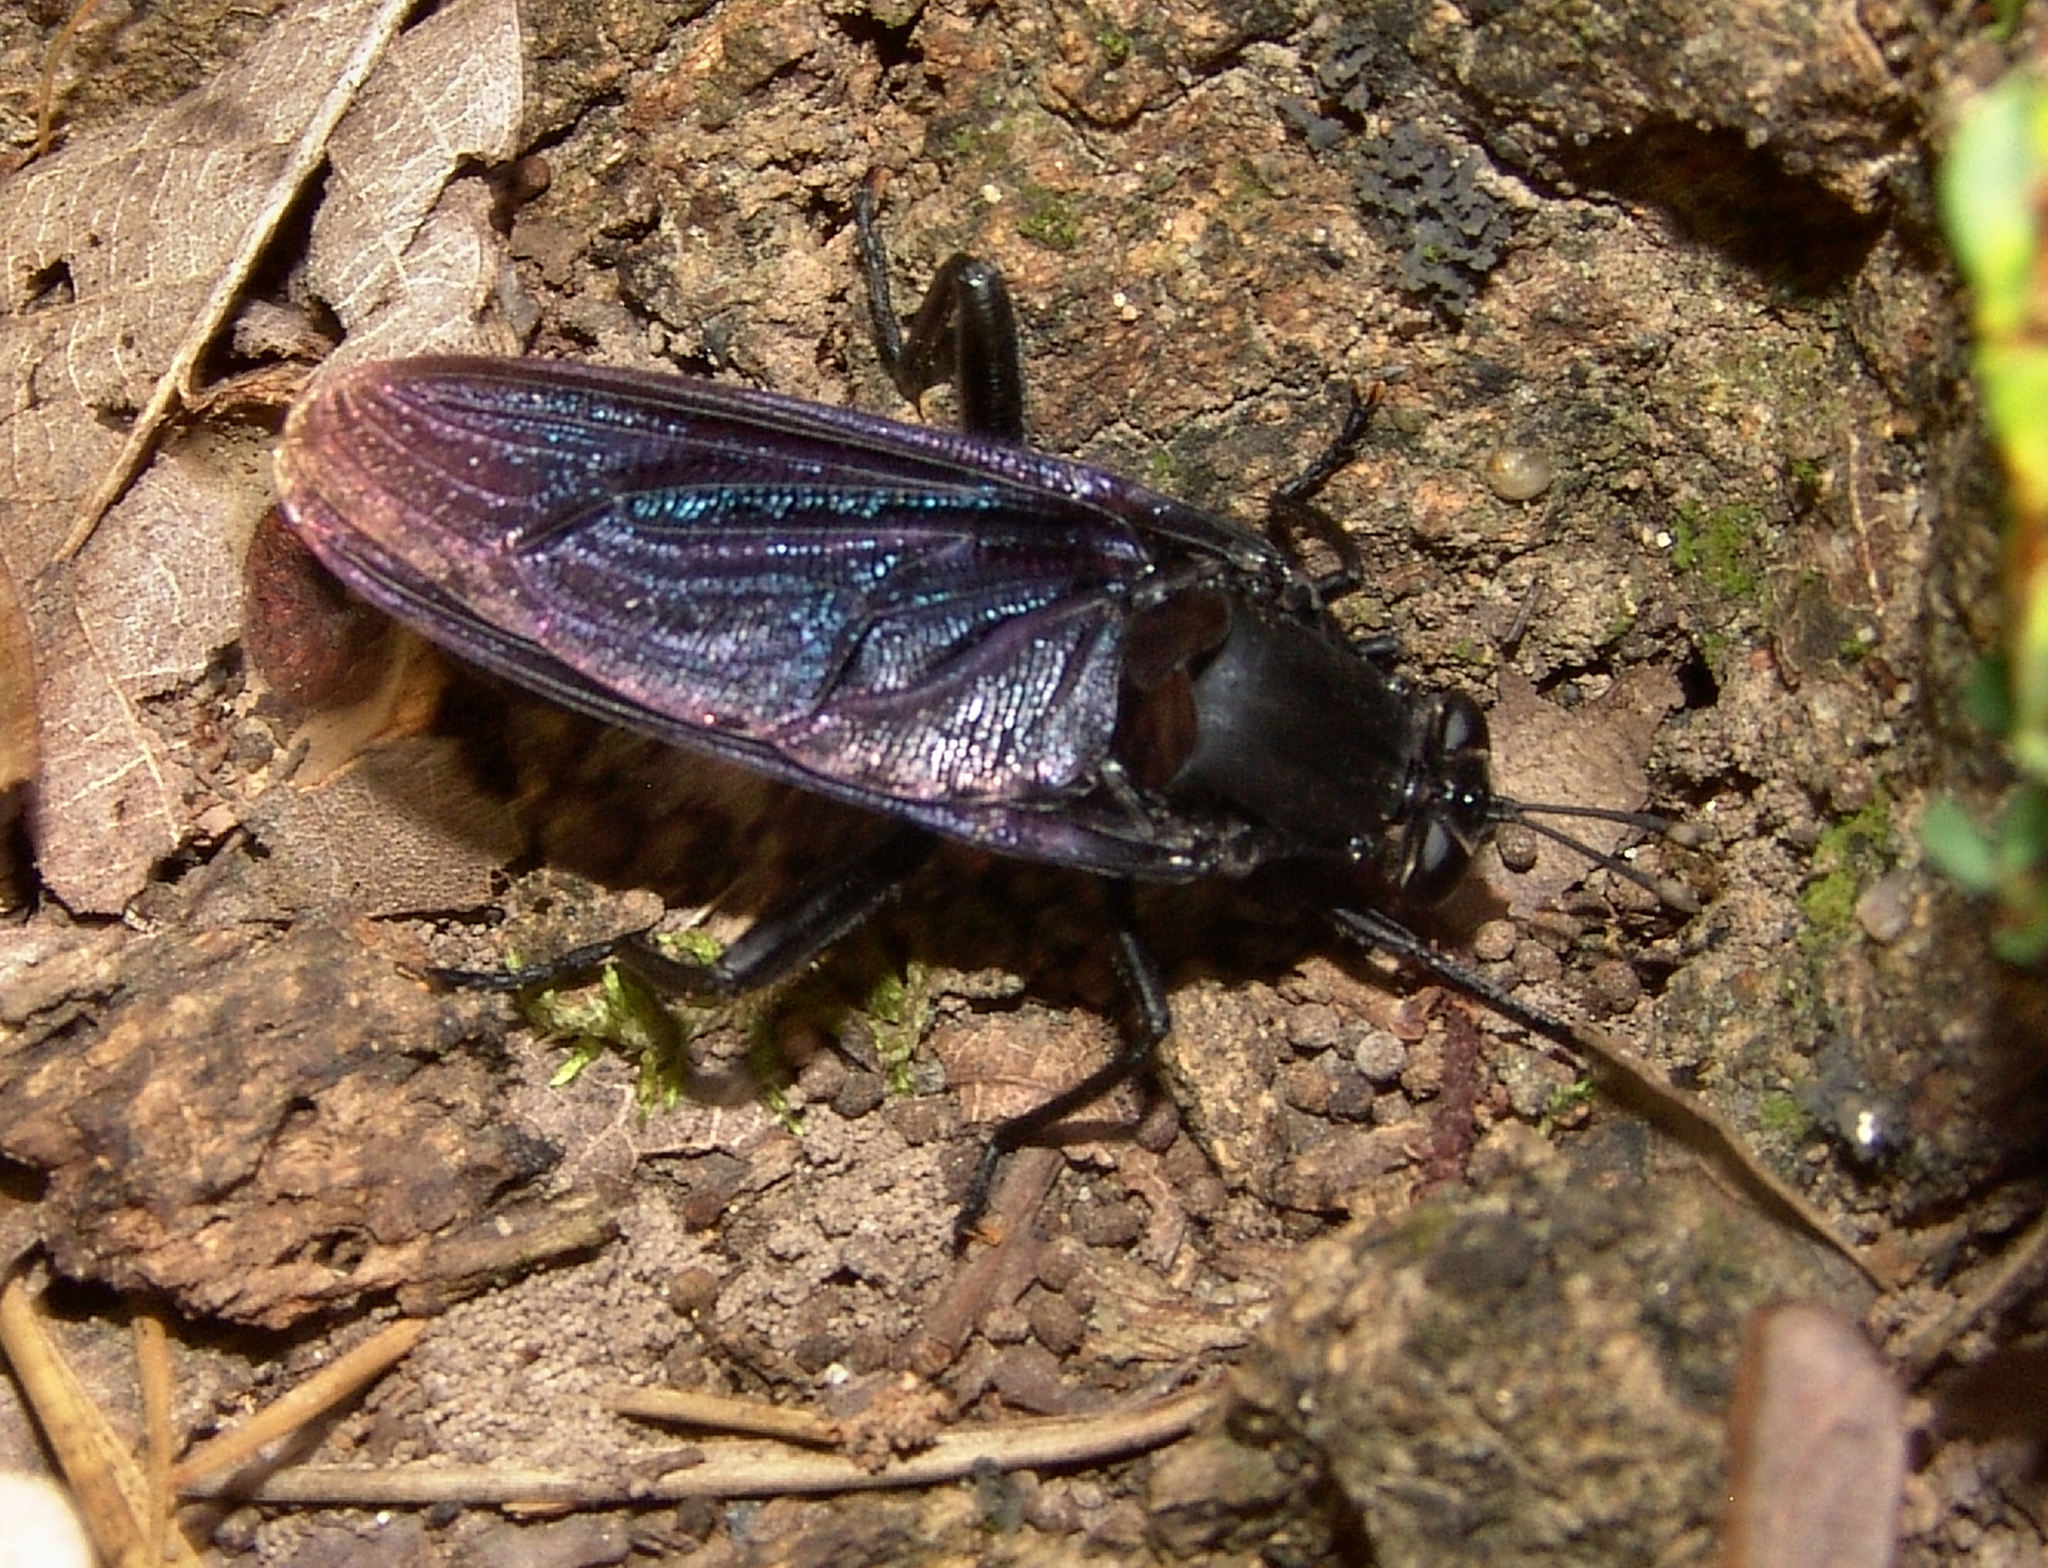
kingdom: Animalia
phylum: Arthropoda
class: Insecta
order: Diptera
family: Mydidae
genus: Mydas
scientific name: Mydas clavatus
